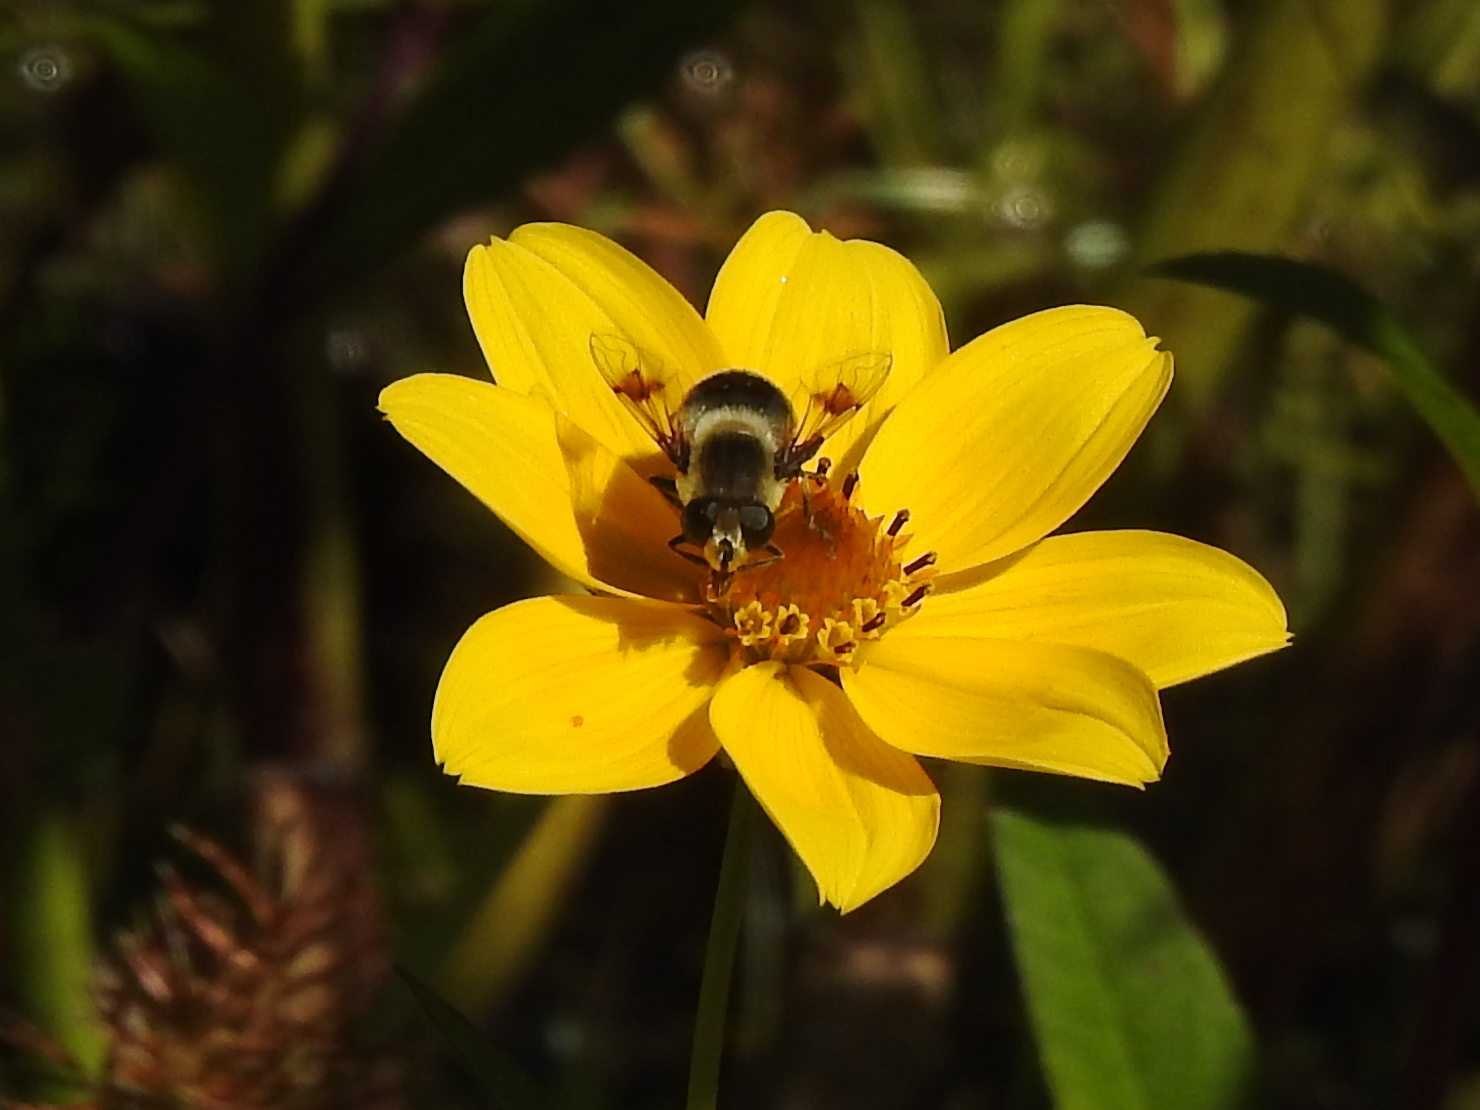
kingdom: Animalia
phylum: Arthropoda
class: Insecta
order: Diptera
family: Syrphidae
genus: Eristalis
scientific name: Eristalis anthophorina
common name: Orange-spotted drone fly
